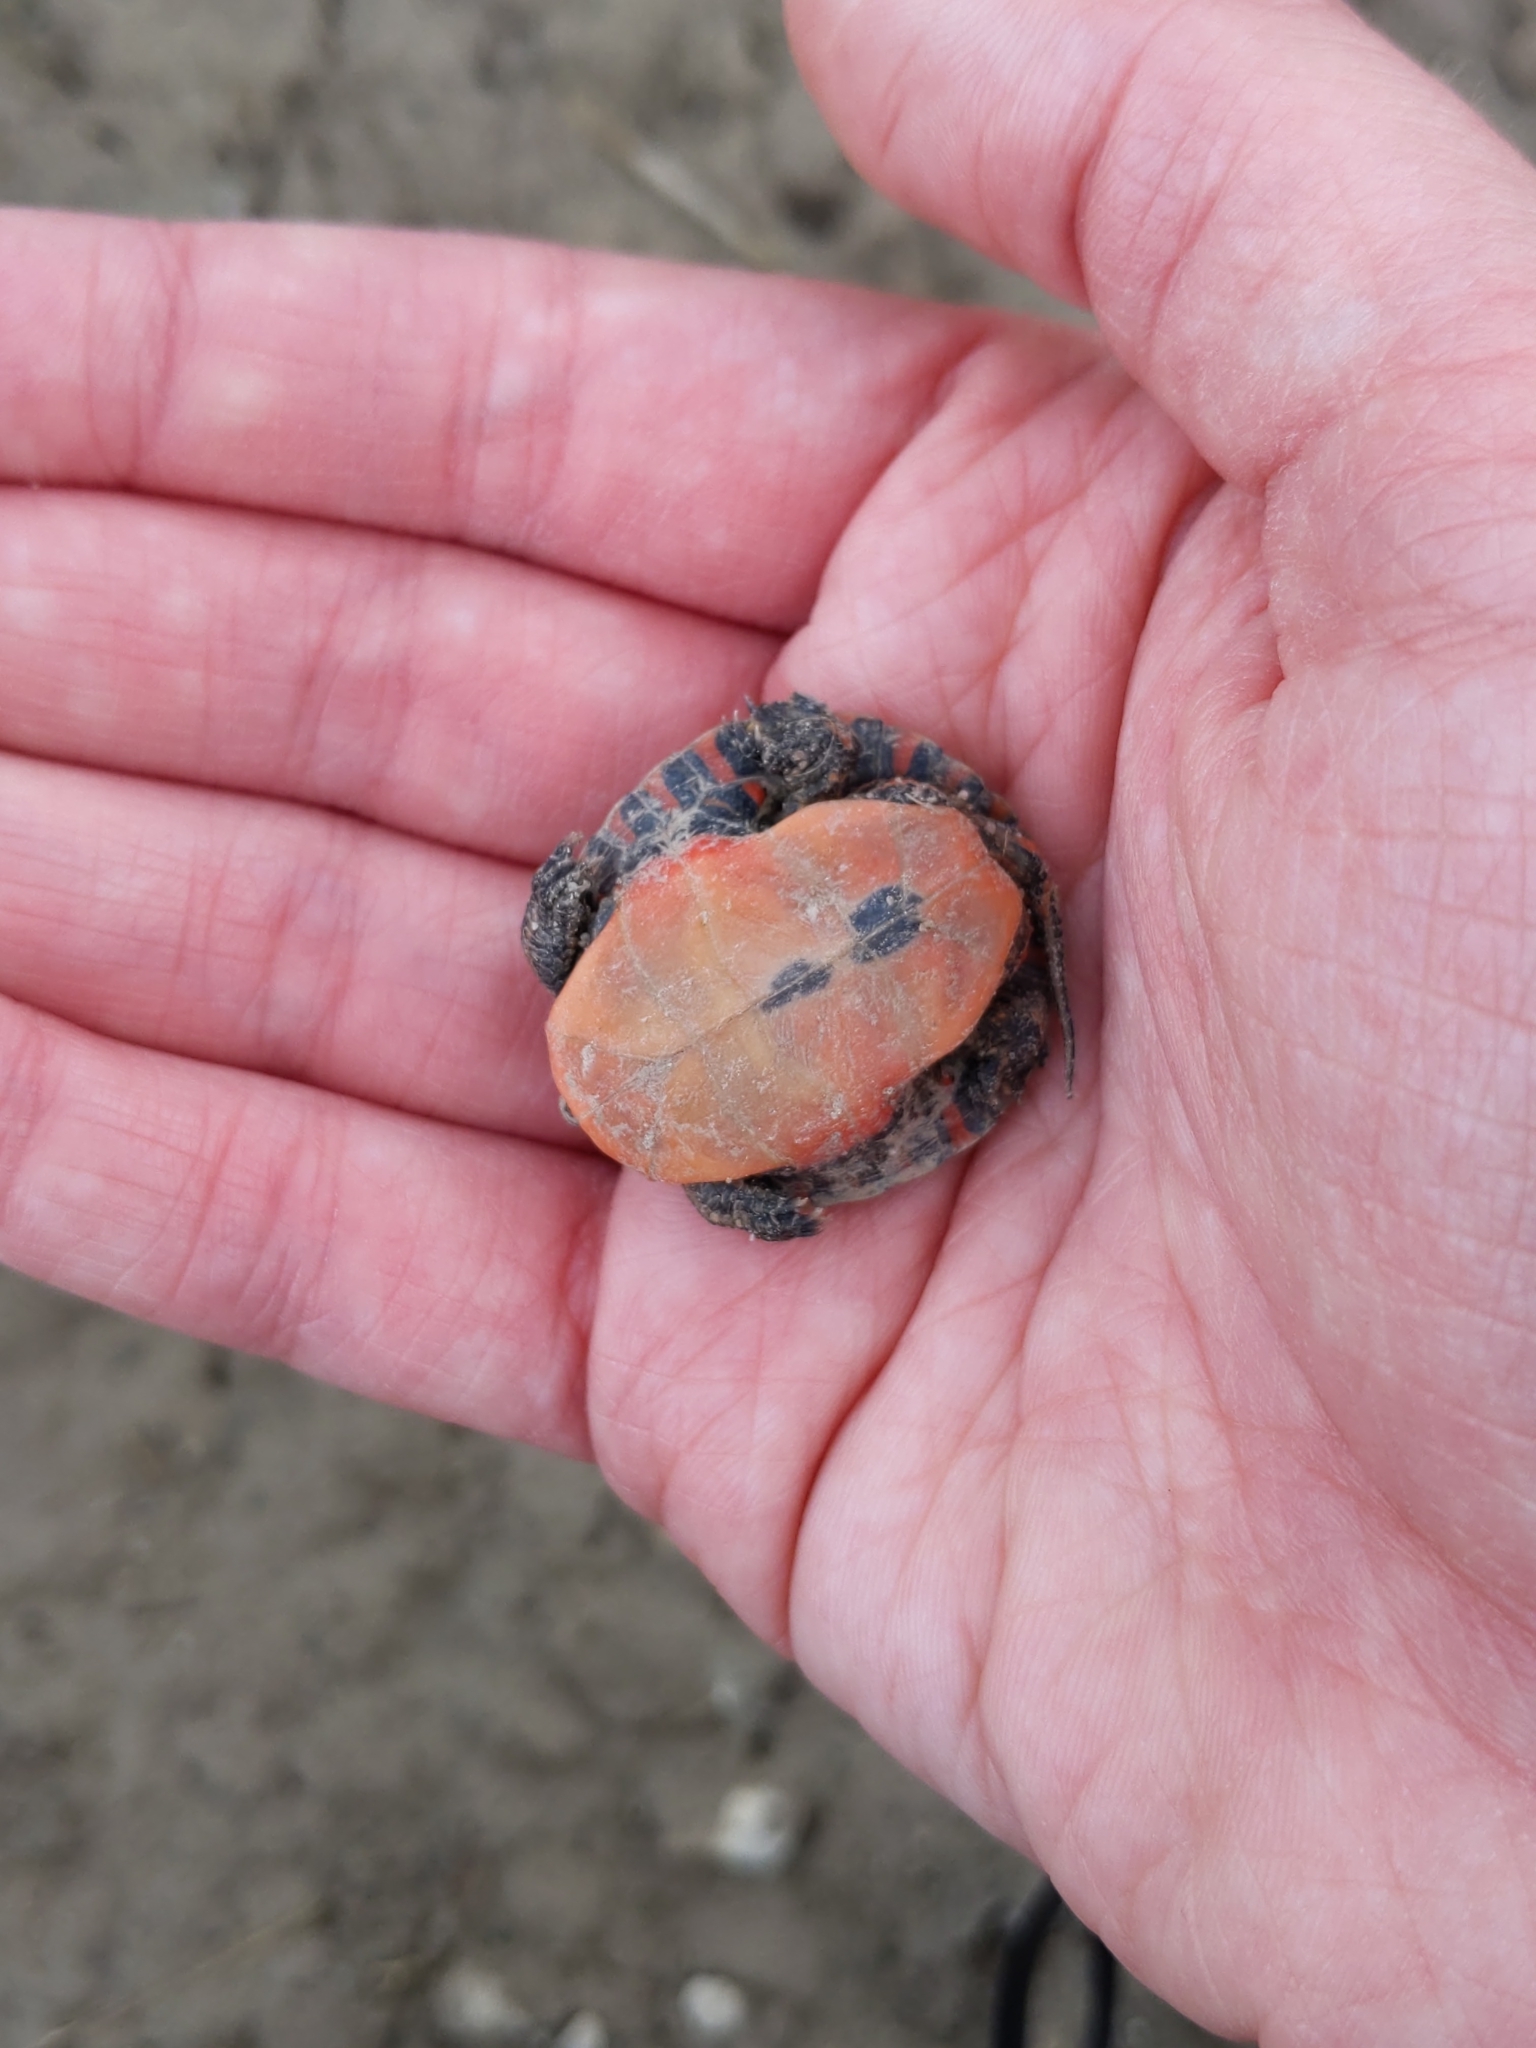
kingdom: Animalia
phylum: Chordata
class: Testudines
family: Emydidae
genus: Chrysemys
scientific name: Chrysemys picta
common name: Painted turtle
